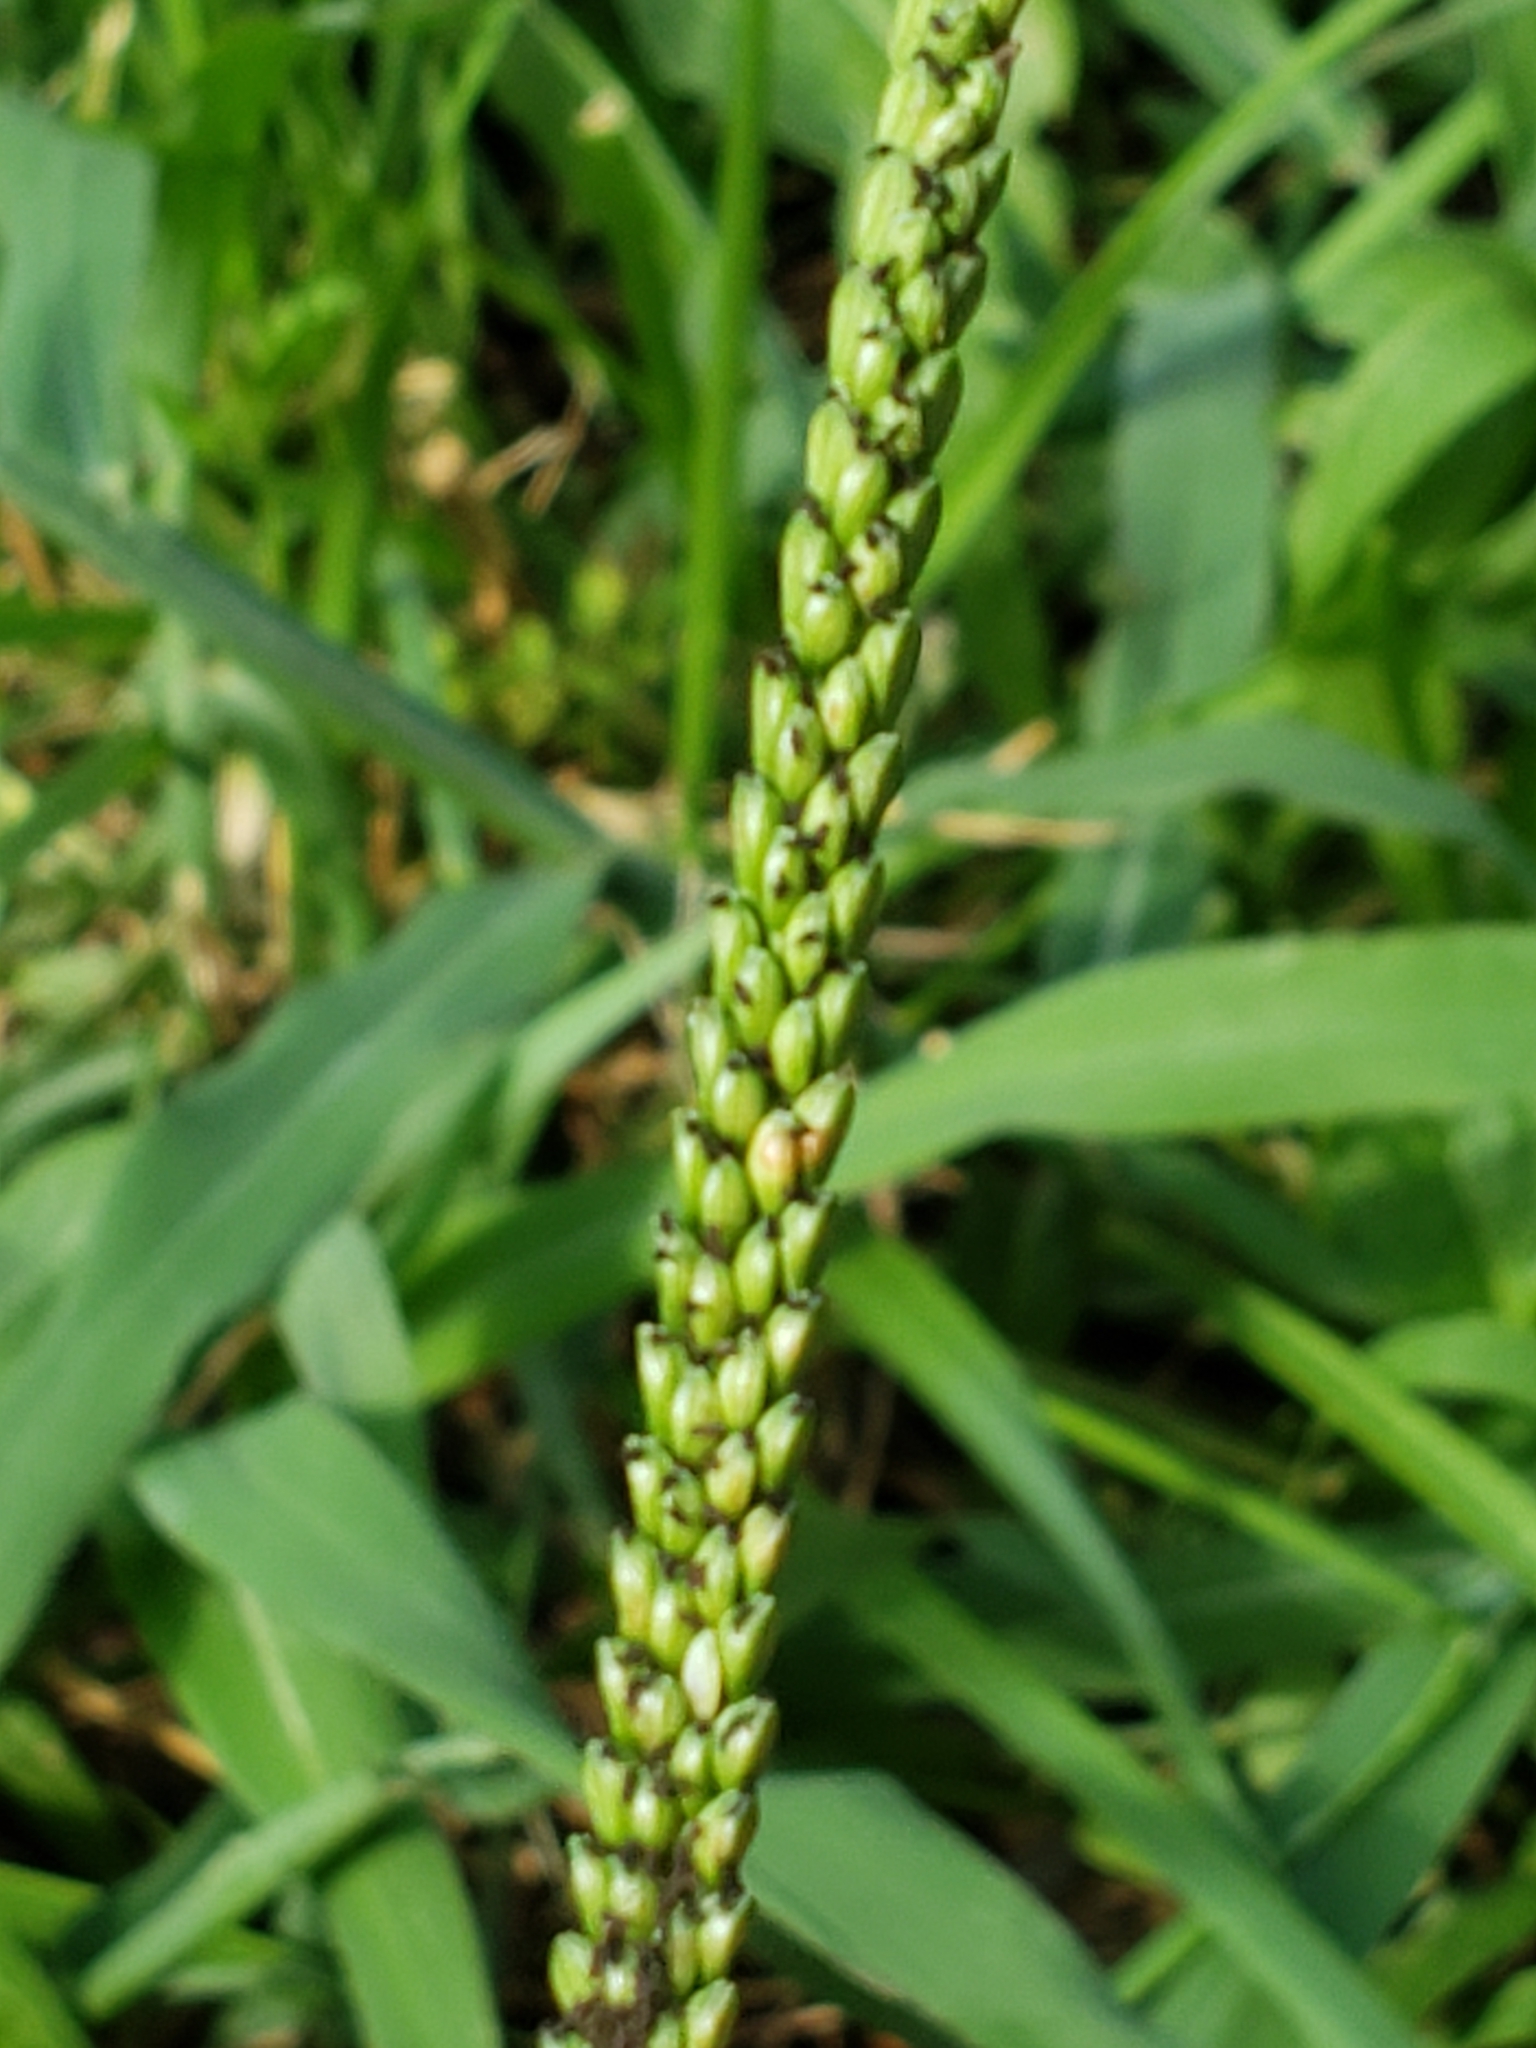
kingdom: Plantae
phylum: Tracheophyta
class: Liliopsida
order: Poales
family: Poaceae
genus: Paspalum
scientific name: Paspalum pubiflorum
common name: Hairy-seed paspalum
